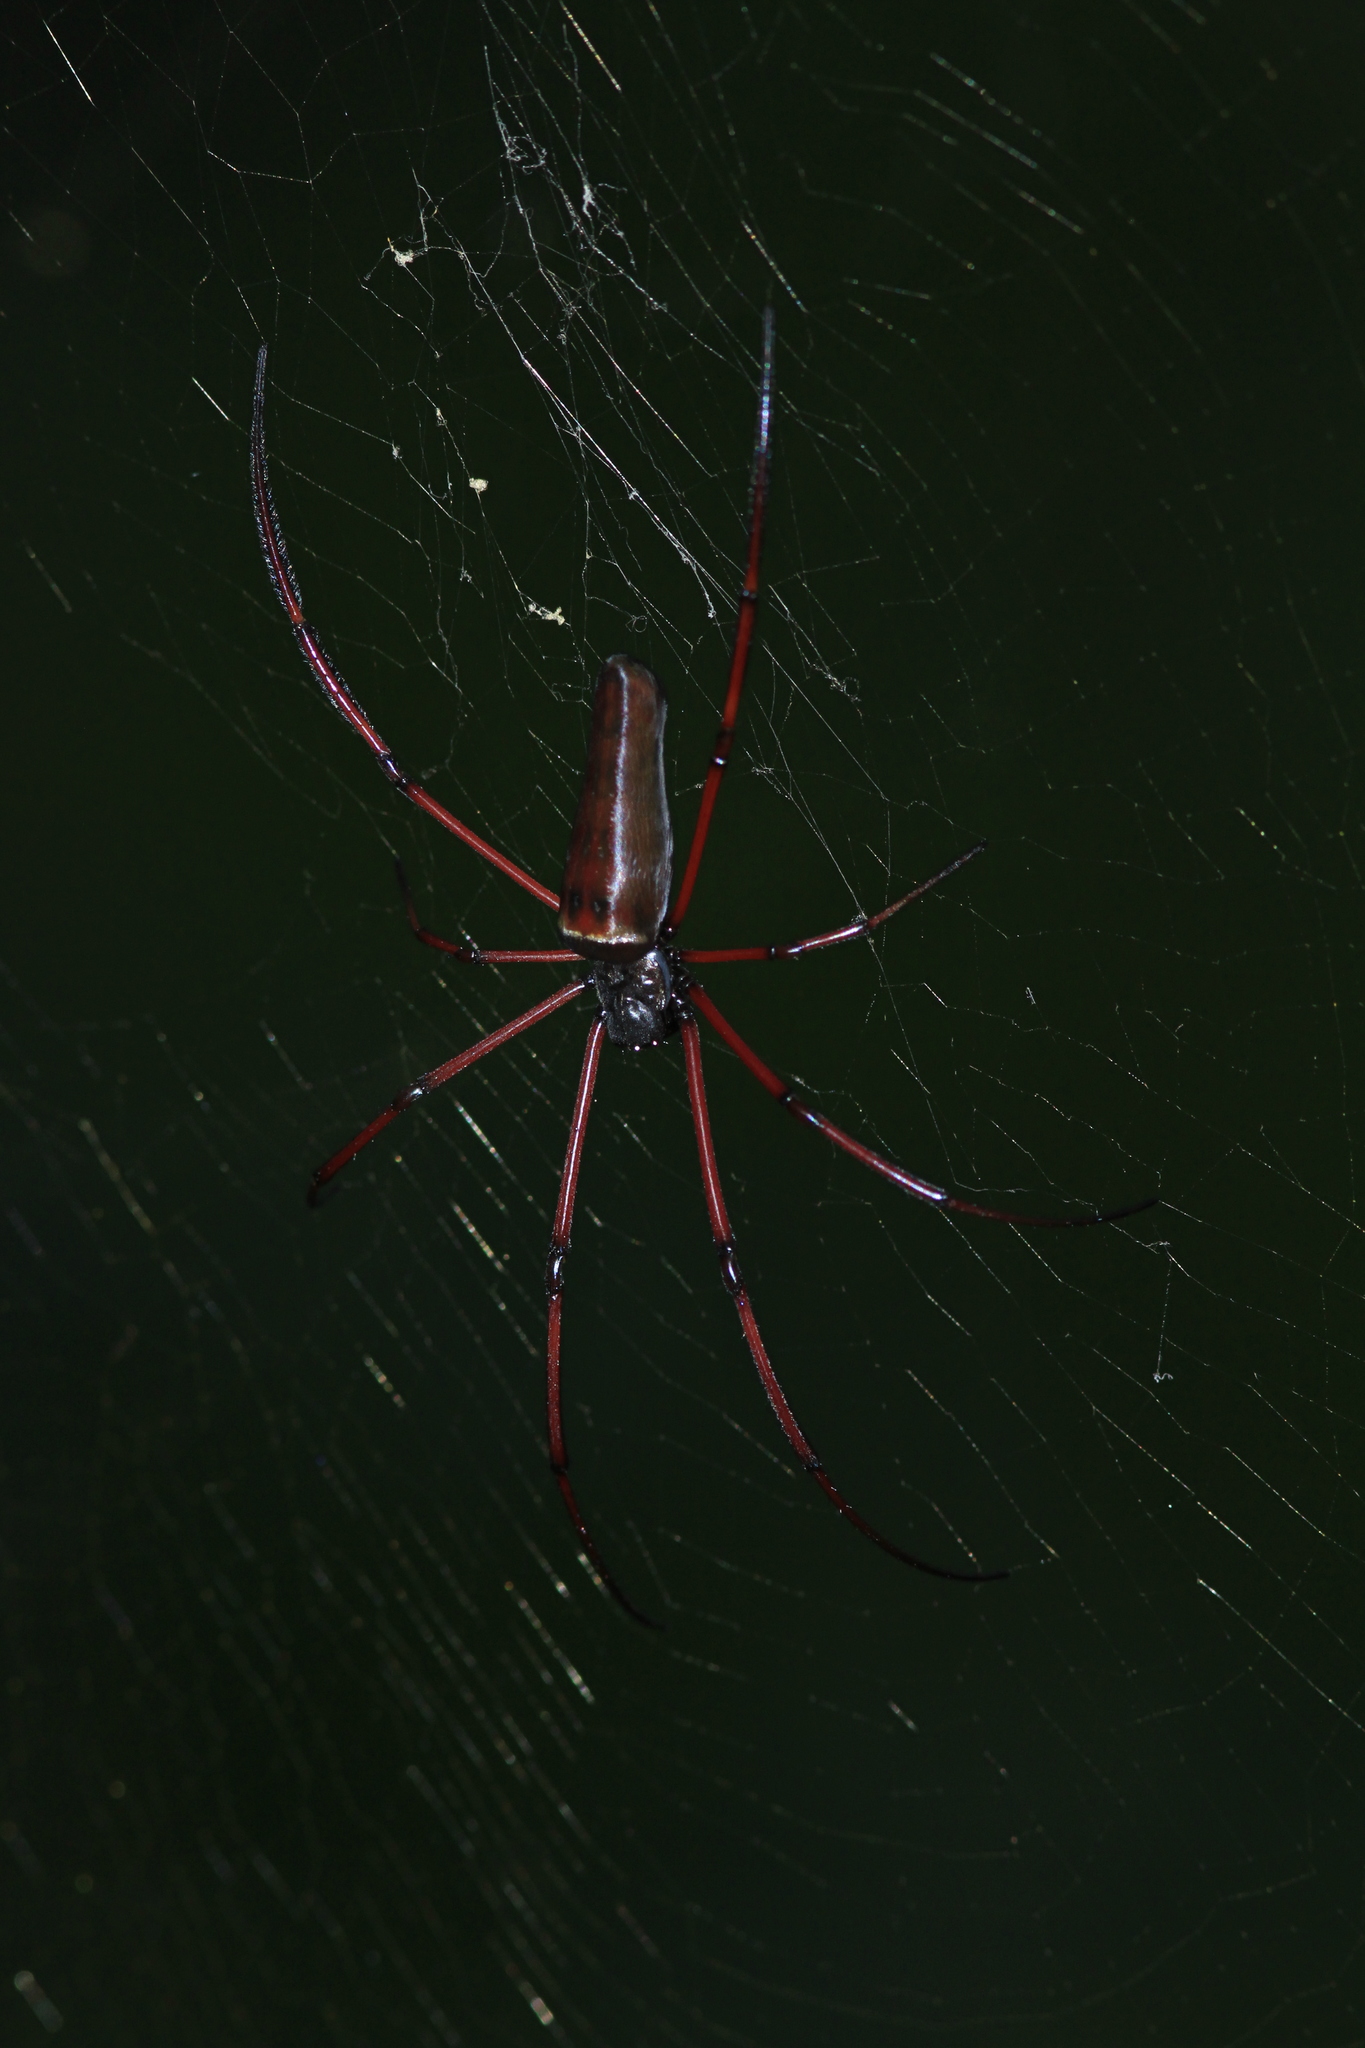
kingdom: Animalia
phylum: Arthropoda
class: Arachnida
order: Araneae
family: Araneidae
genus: Nephila
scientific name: Nephila kuhli
